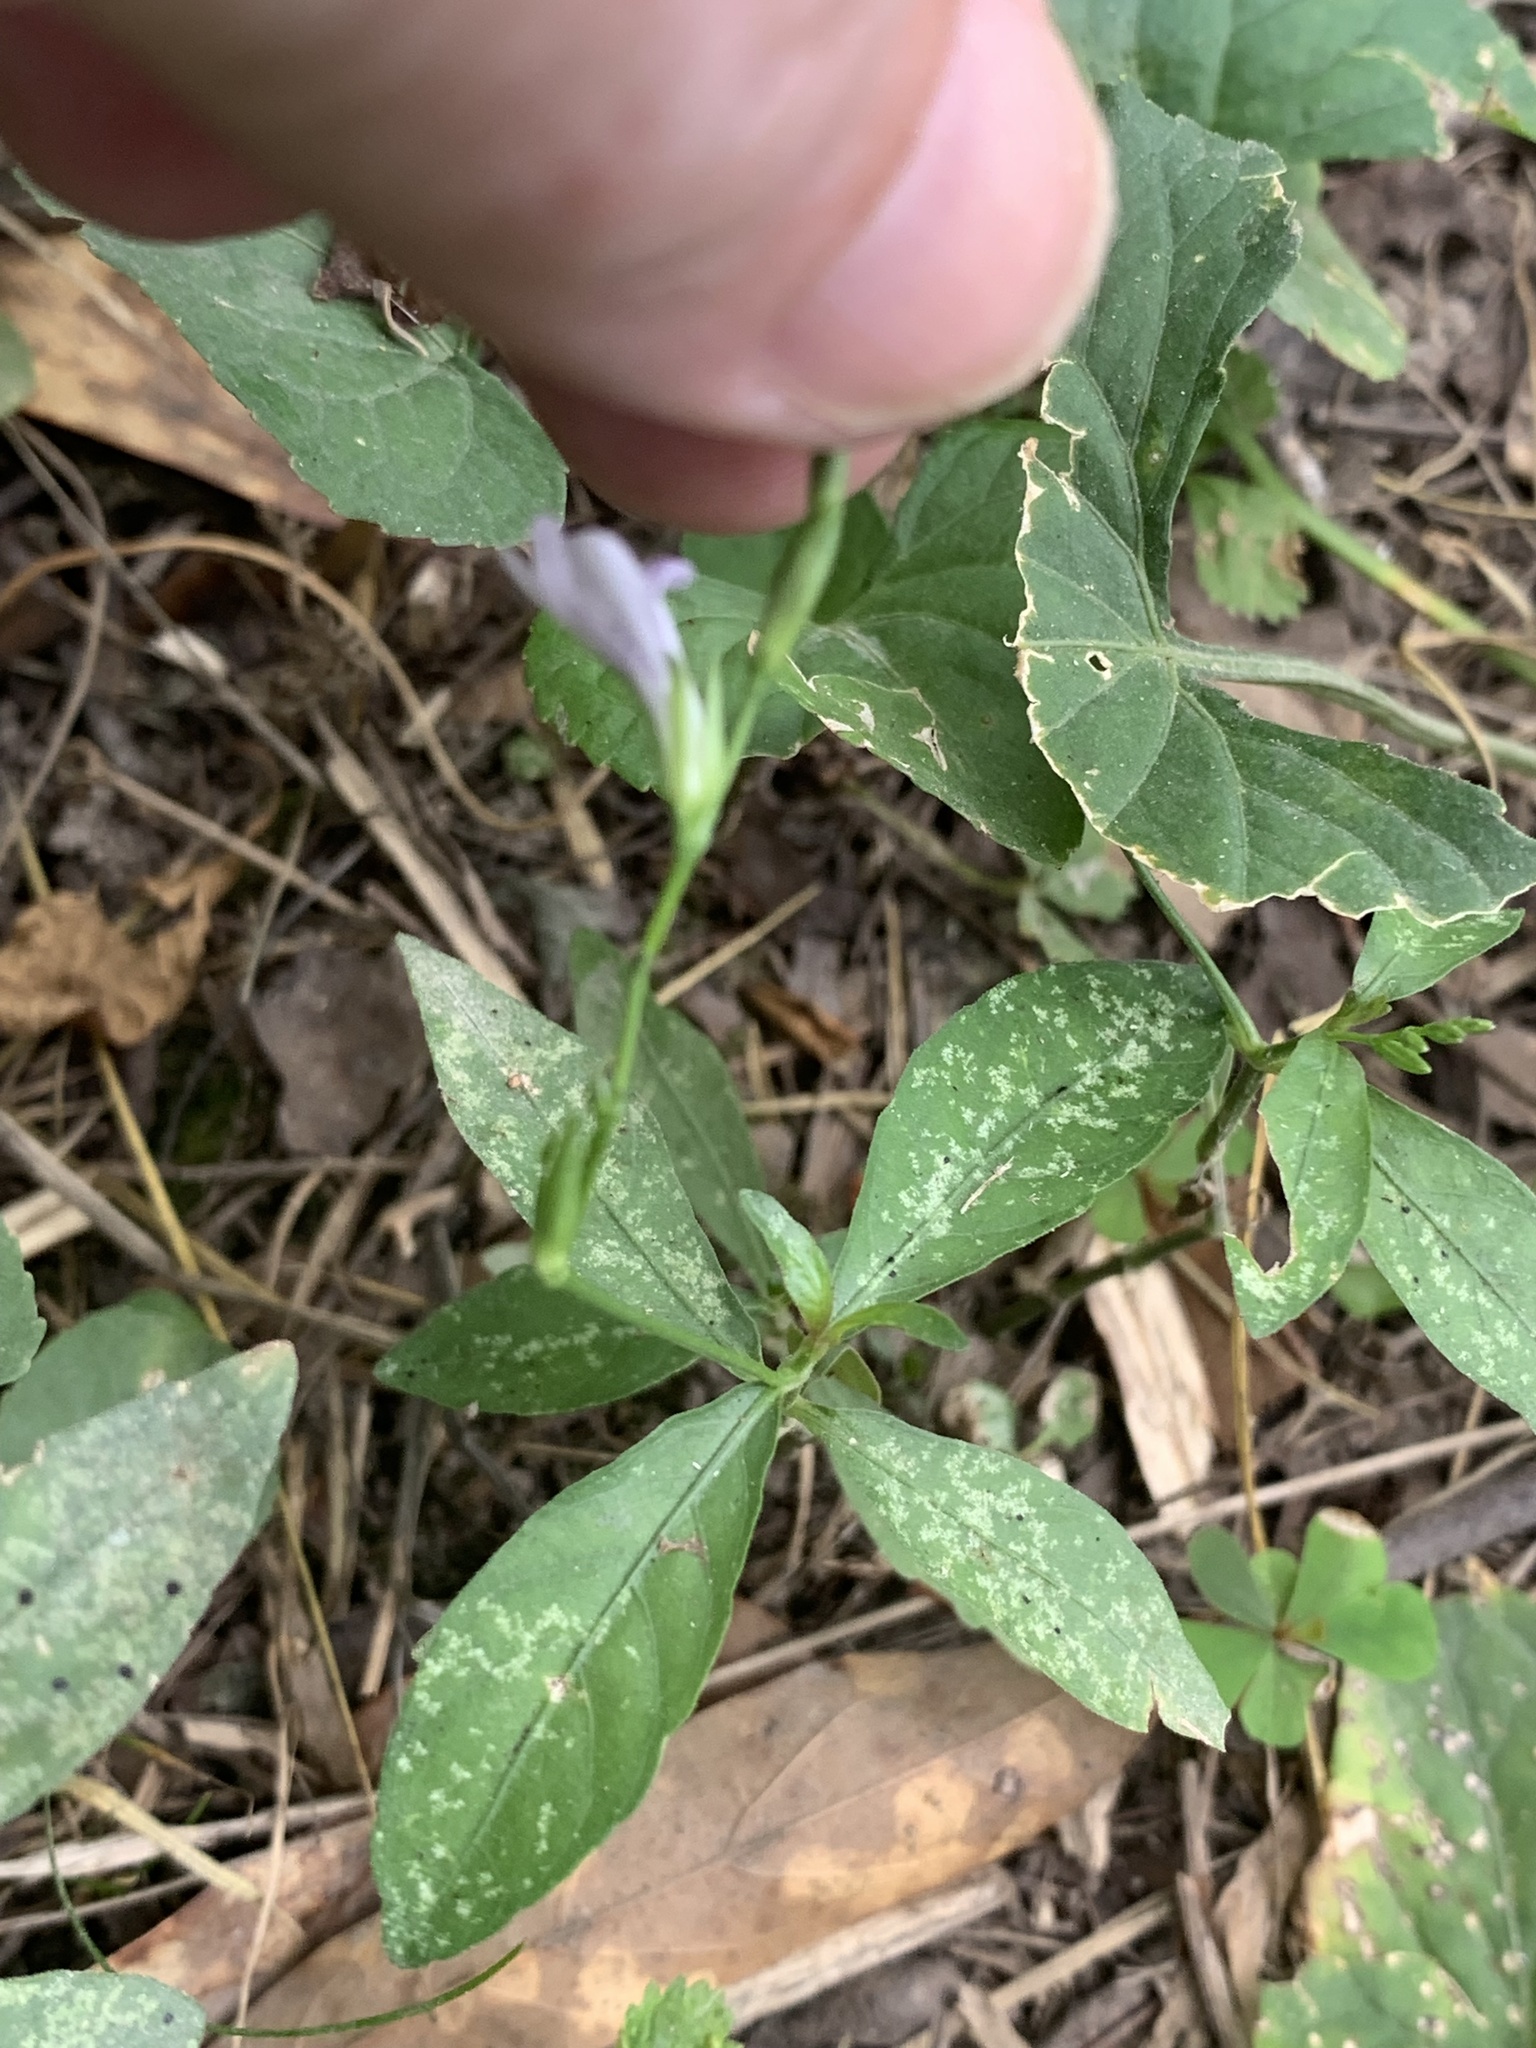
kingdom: Plantae
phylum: Tracheophyta
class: Magnoliopsida
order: Lamiales
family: Acanthaceae
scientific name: Acanthaceae
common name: Acanthaceae
